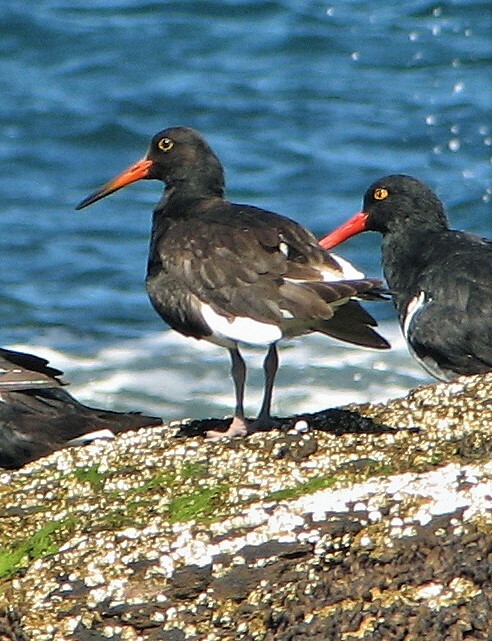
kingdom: Animalia
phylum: Chordata
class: Aves
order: Charadriiformes
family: Haematopodidae
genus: Haematopus
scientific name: Haematopus leucopodus
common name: Magellanic oystercatcher
